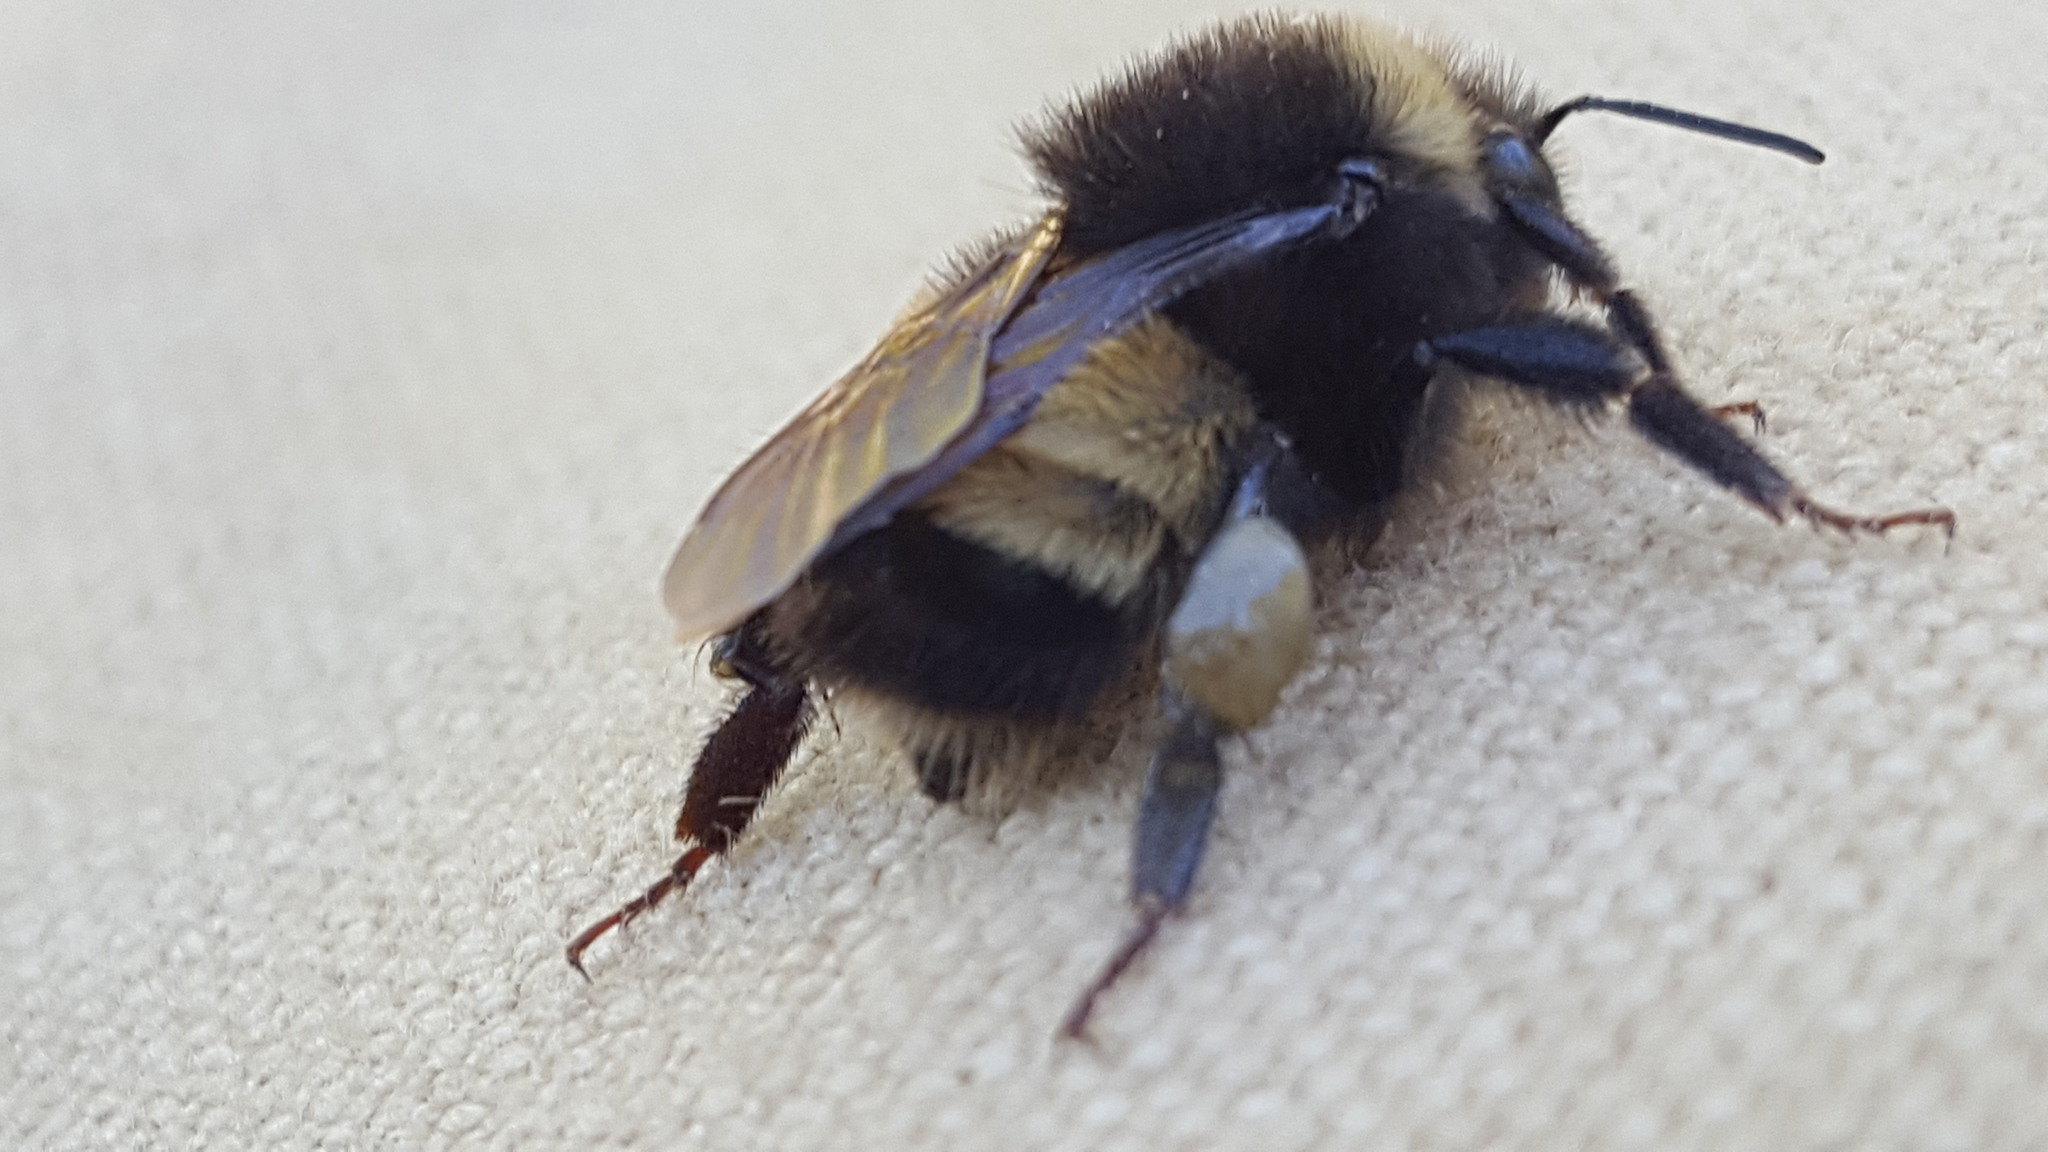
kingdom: Animalia
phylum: Arthropoda
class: Insecta
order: Hymenoptera
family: Apidae
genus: Bombus
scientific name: Bombus terricola
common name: Yellow-banded bumble bee
